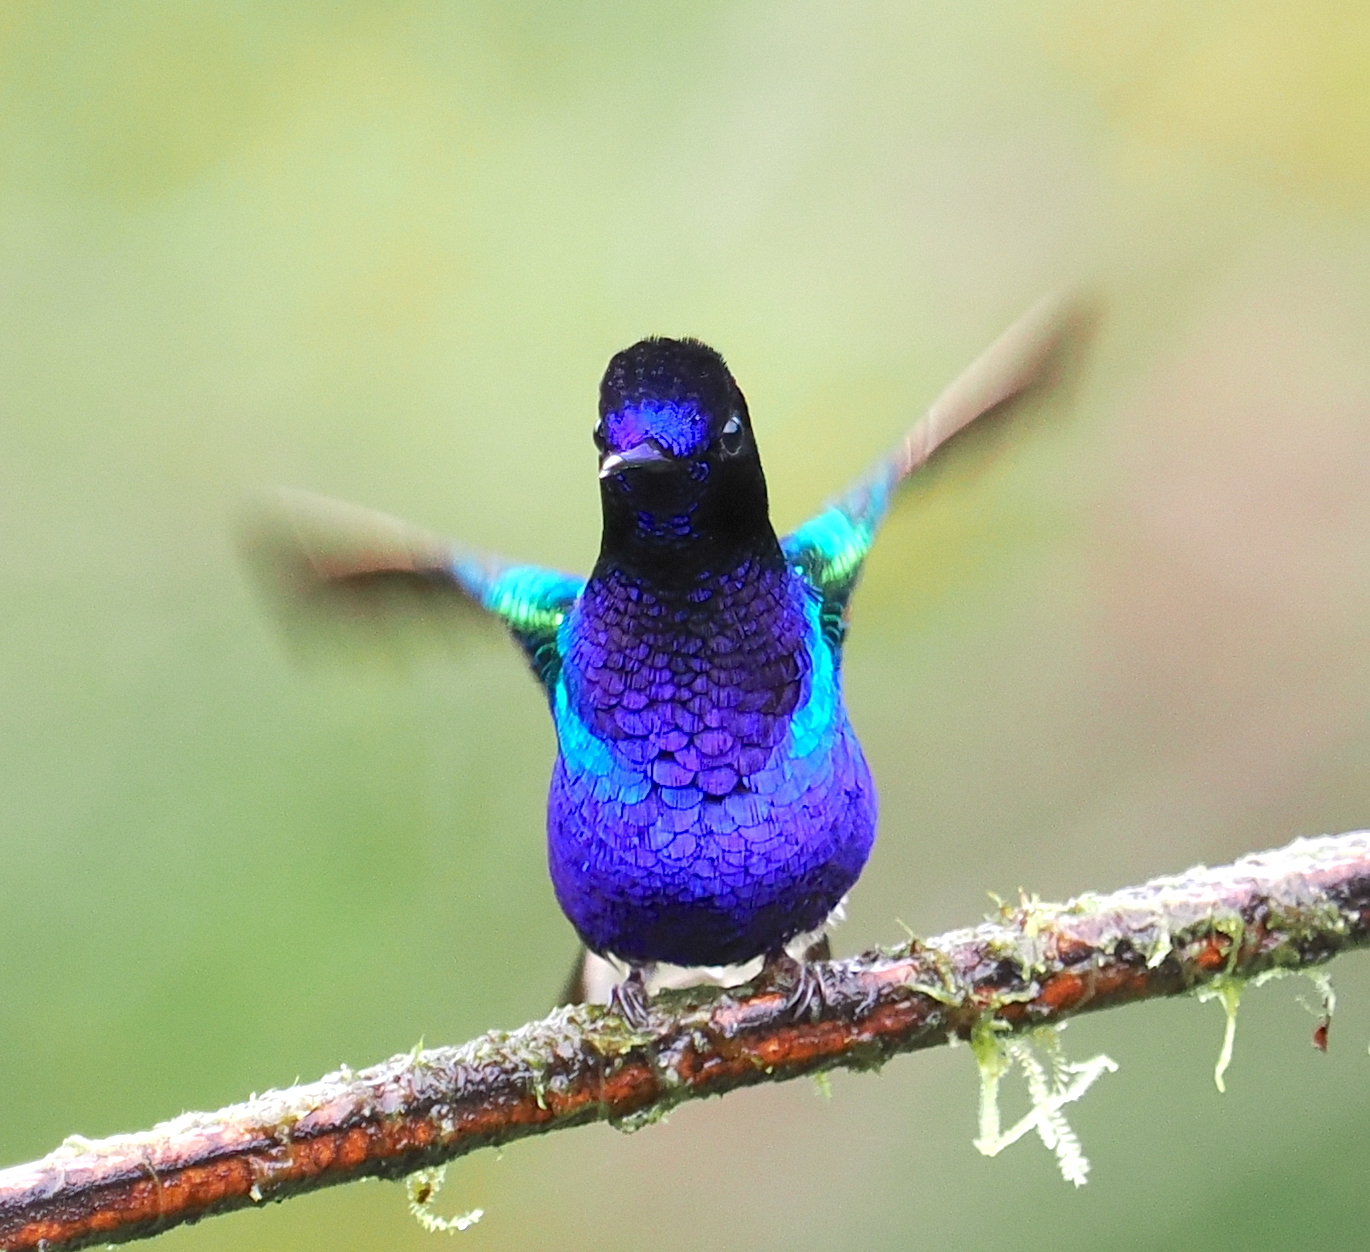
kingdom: Animalia
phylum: Chordata
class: Aves
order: Apodiformes
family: Trochilidae
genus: Boissonneaua
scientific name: Boissonneaua jardini
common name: Velvet-purple coronet
